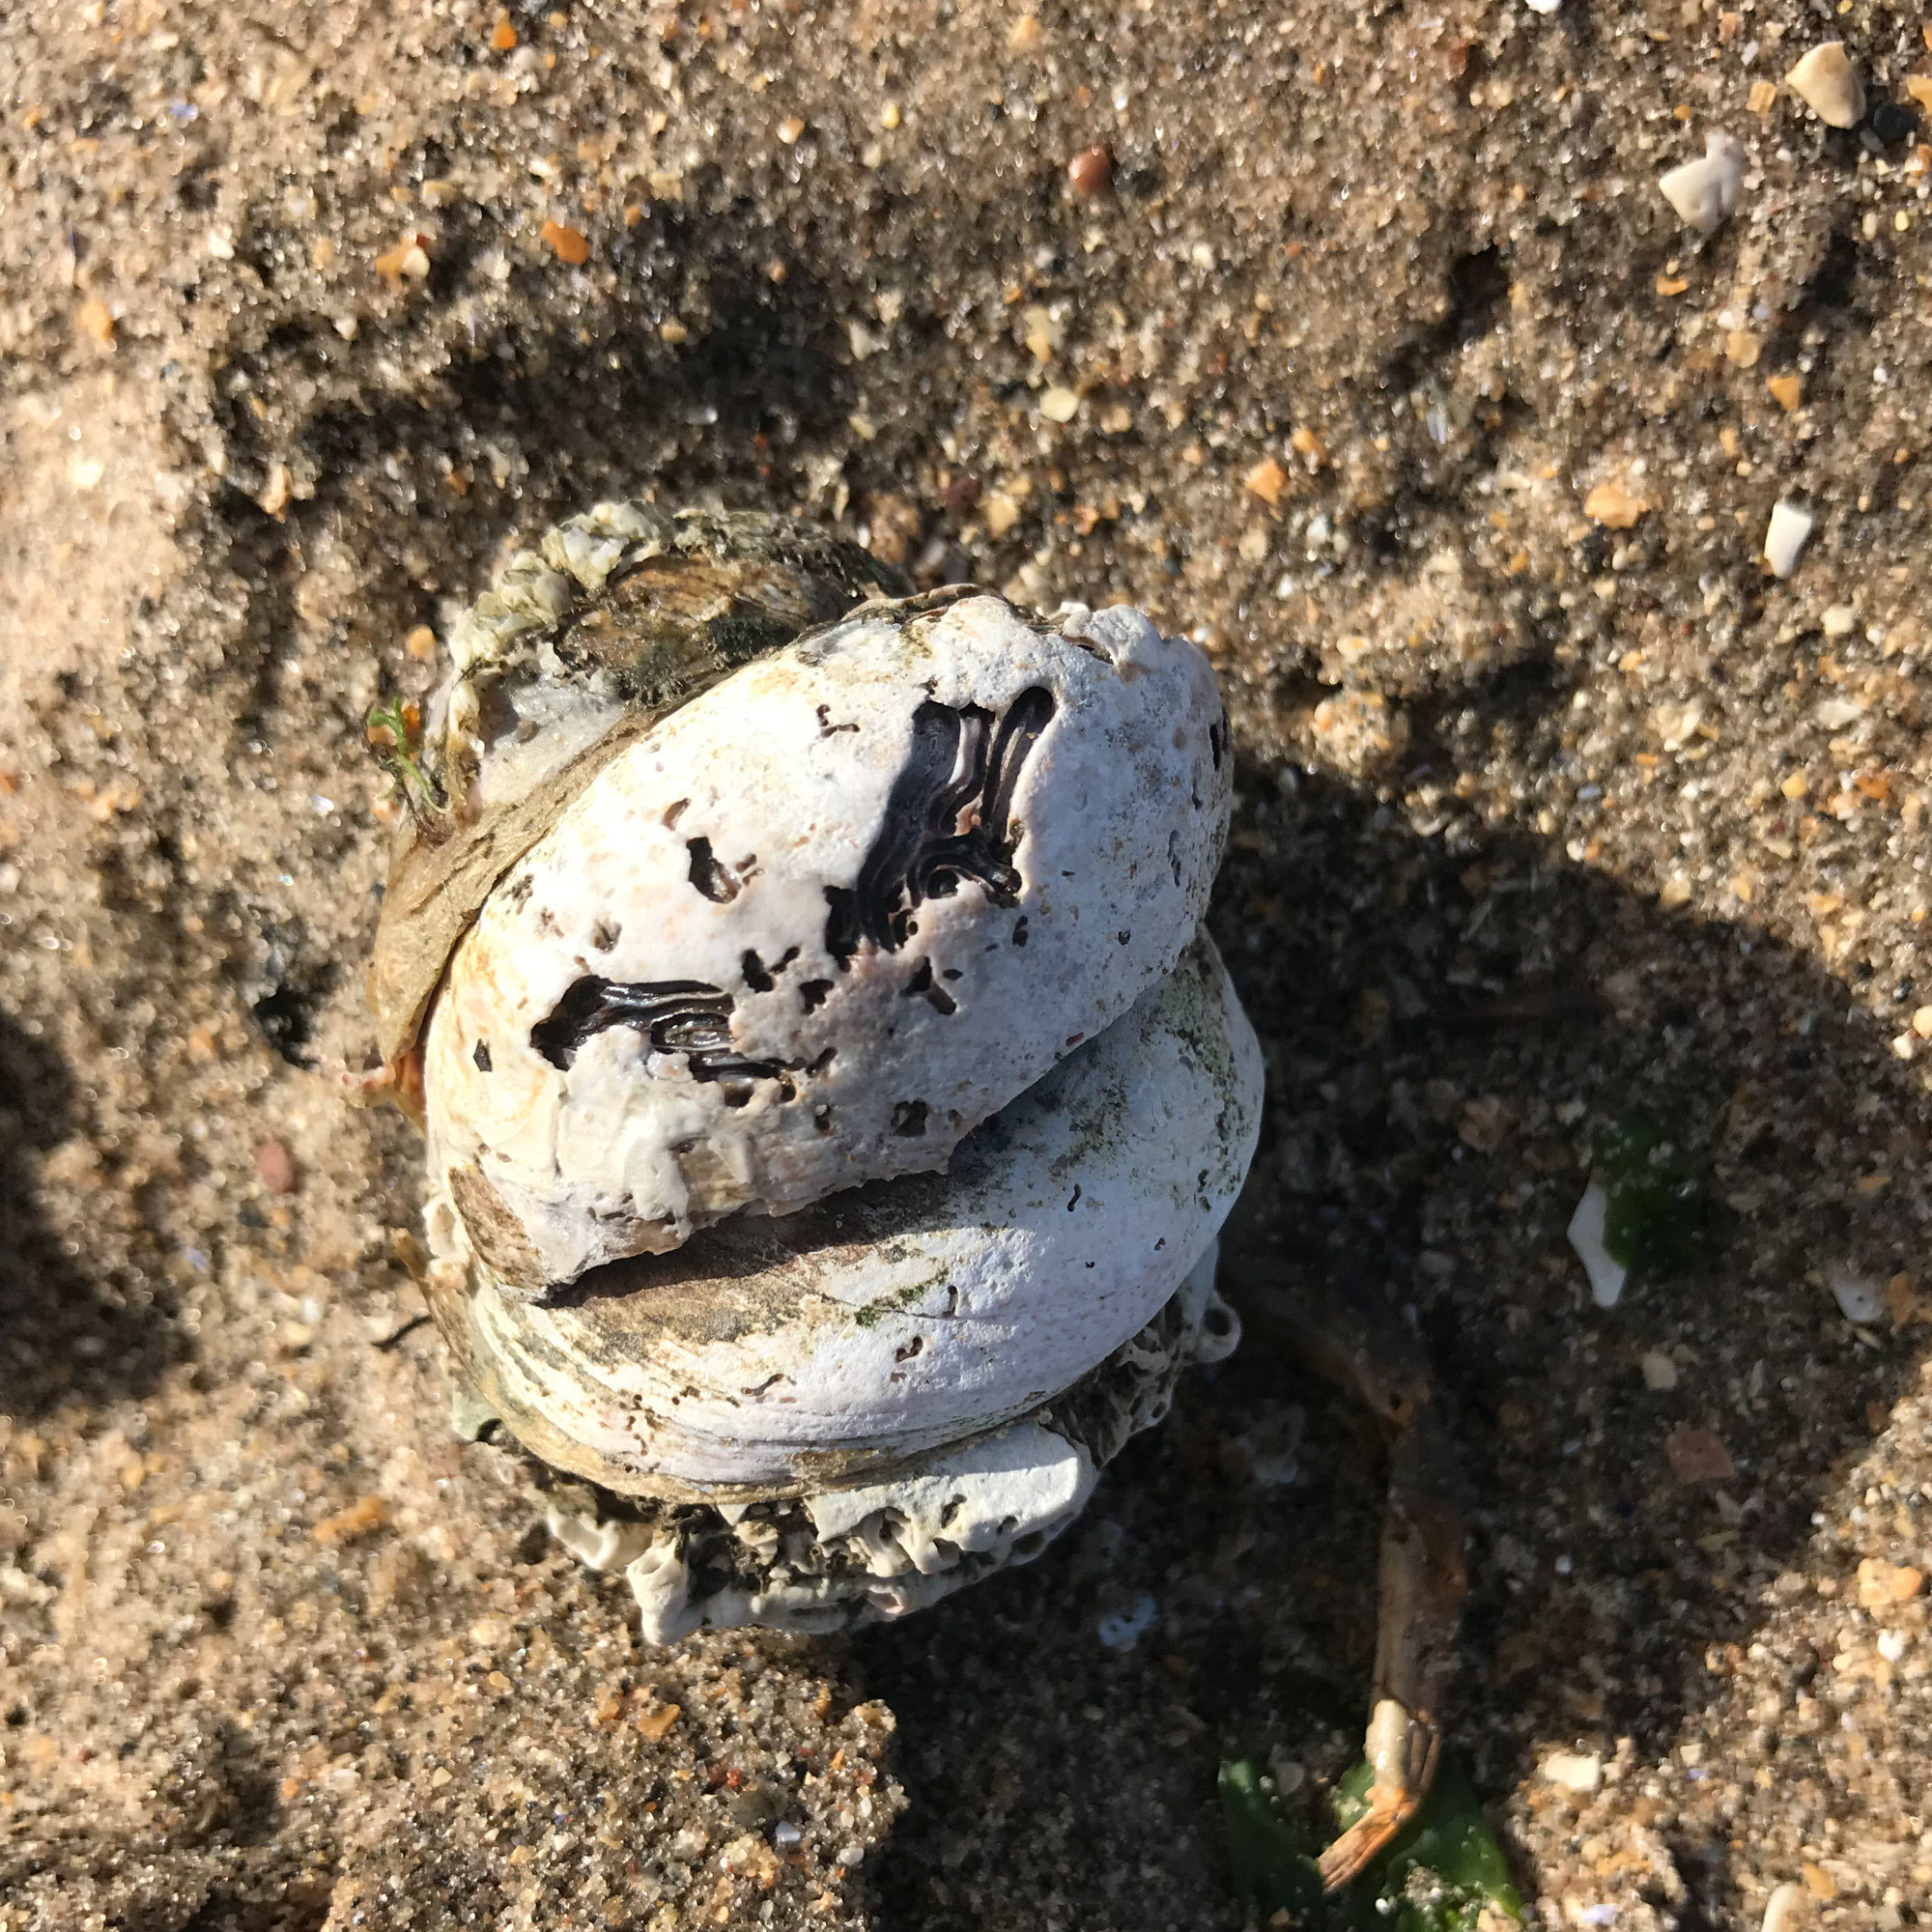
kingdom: Animalia
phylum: Mollusca
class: Gastropoda
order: Littorinimorpha
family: Calyptraeidae
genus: Crepidula
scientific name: Crepidula fornicata
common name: Slipper limpet
